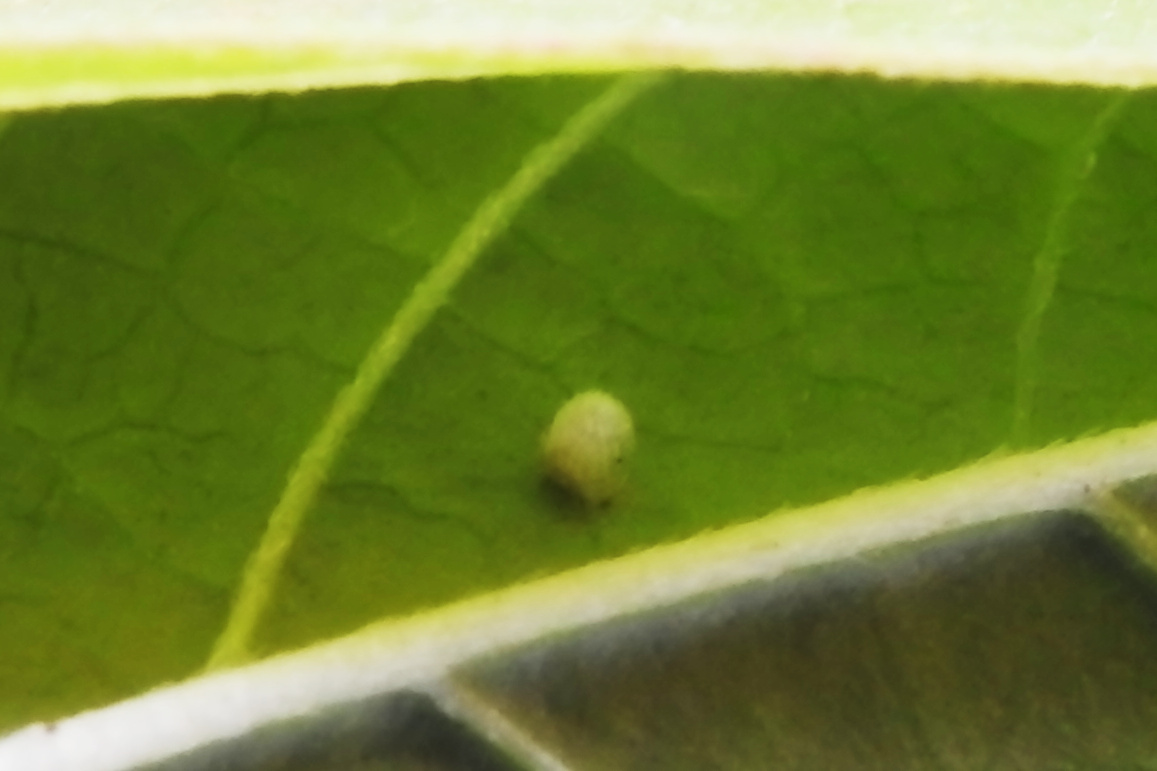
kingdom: Animalia
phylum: Arthropoda
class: Insecta
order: Lepidoptera
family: Nymphalidae
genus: Danaus
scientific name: Danaus plexippus
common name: Monarch
